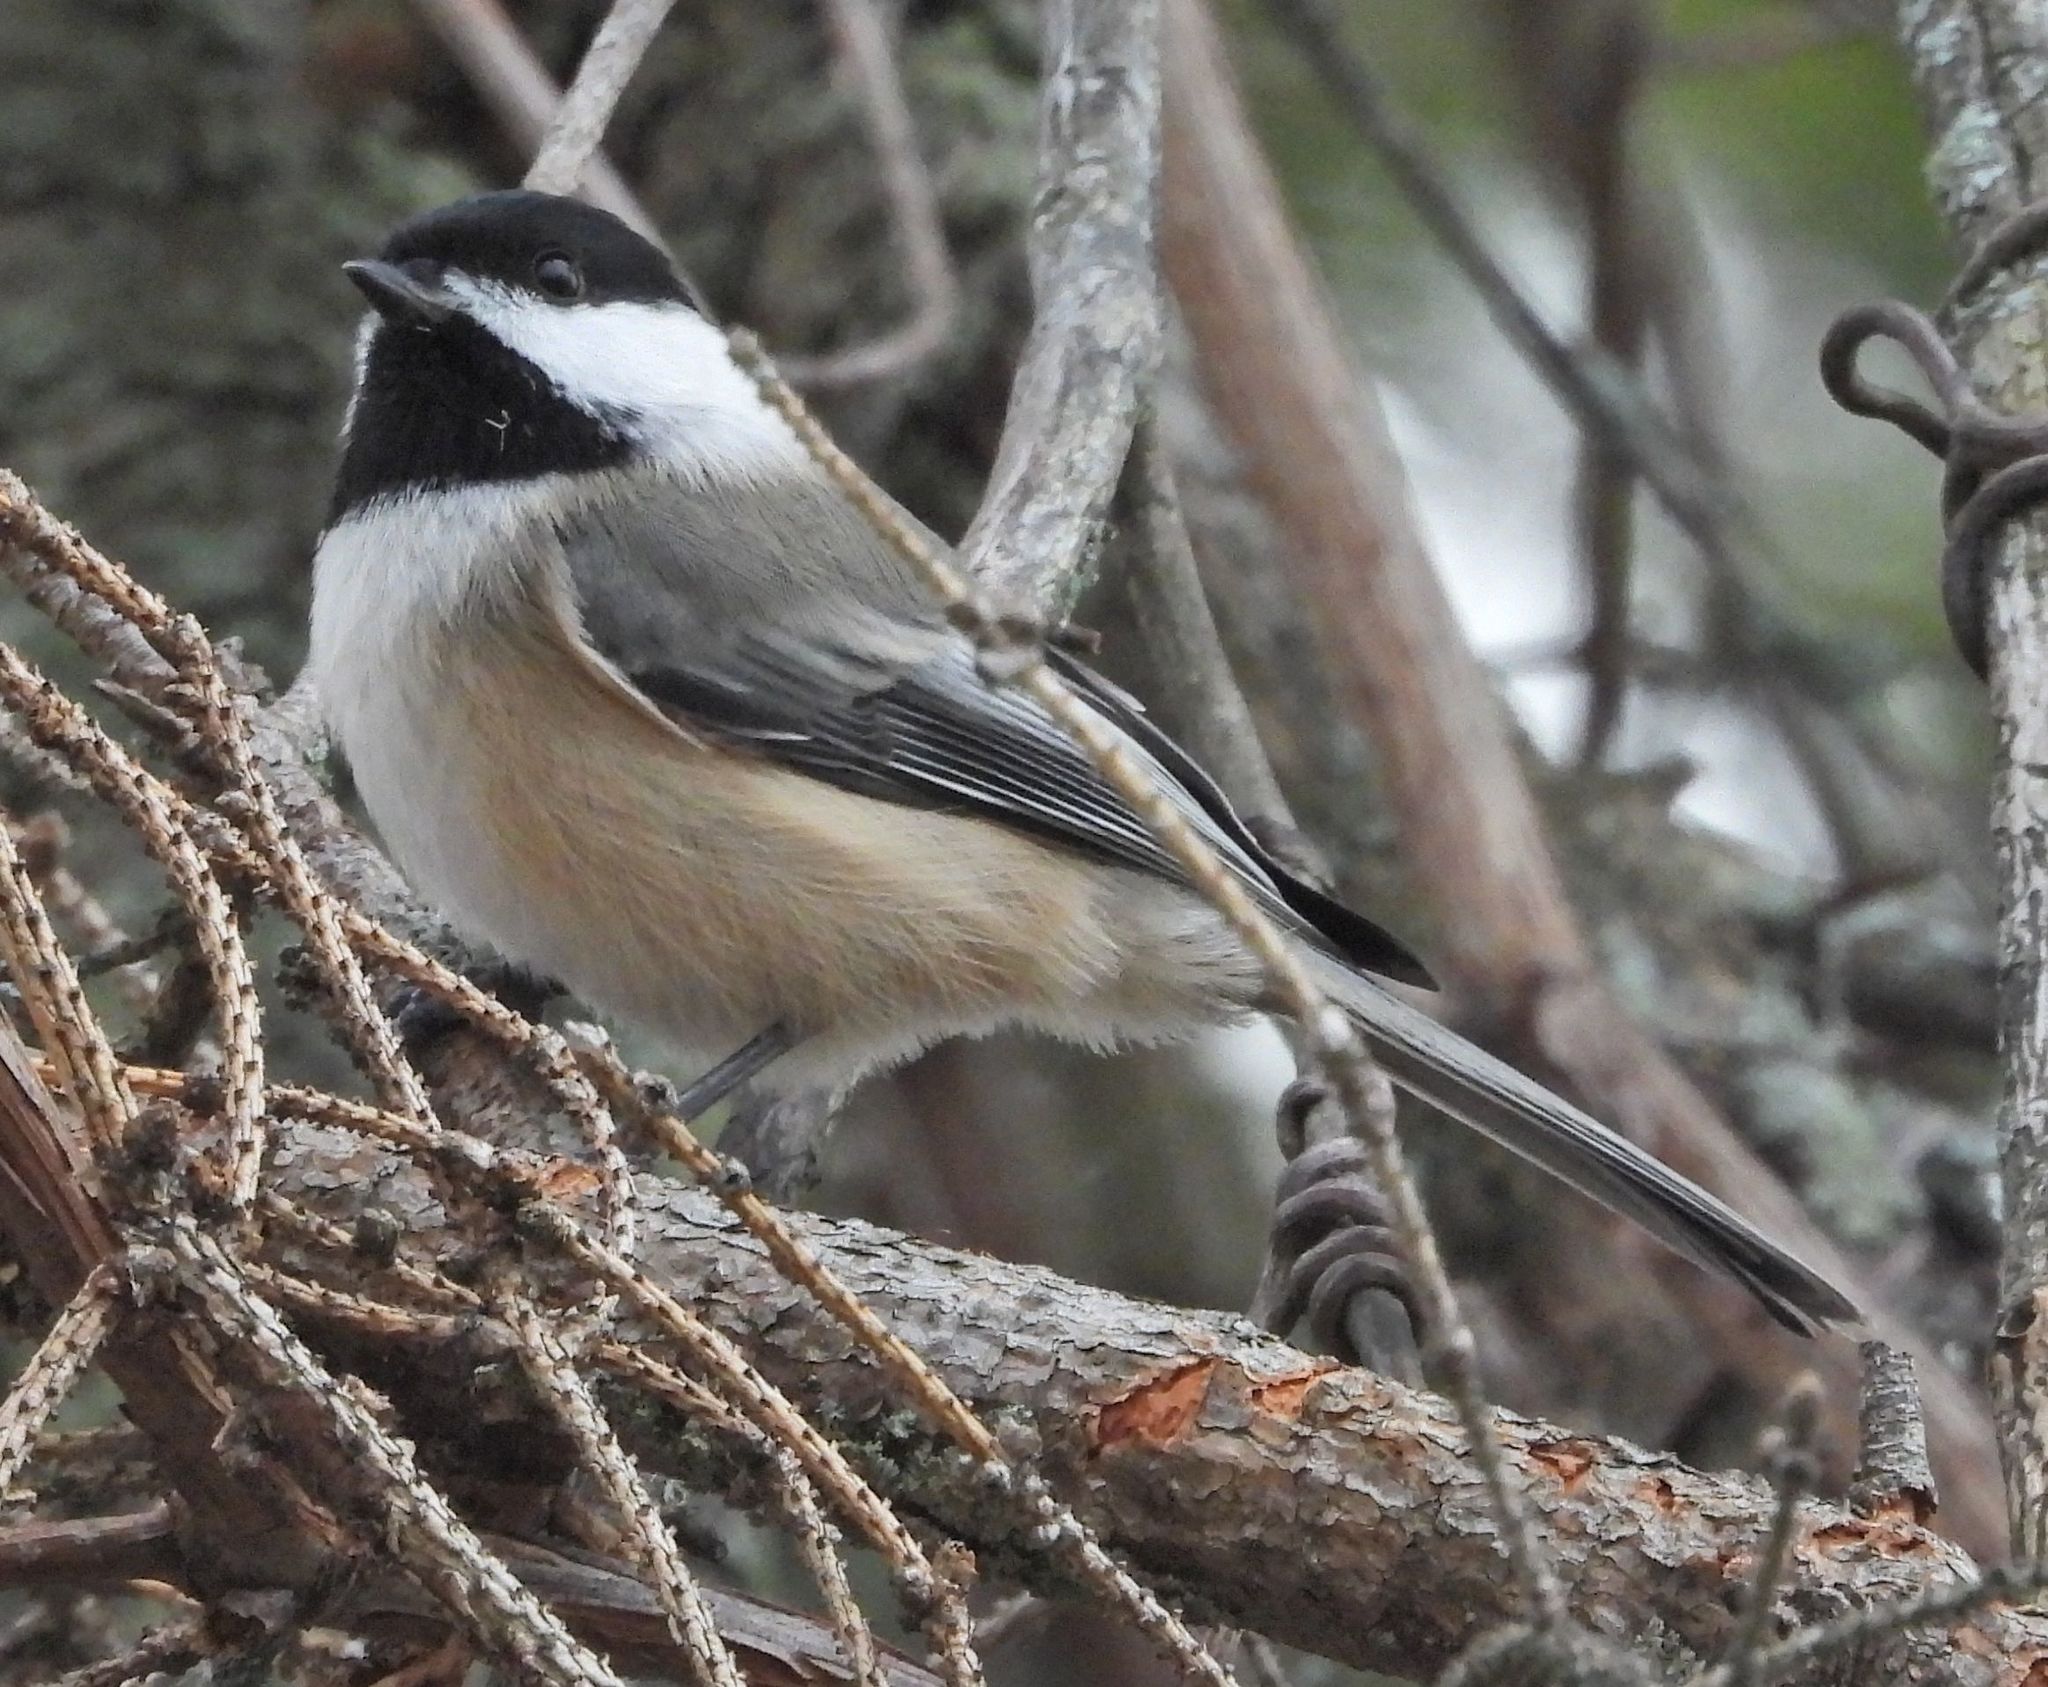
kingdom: Animalia
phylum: Chordata
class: Aves
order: Passeriformes
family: Paridae
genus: Poecile
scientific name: Poecile atricapillus
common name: Black-capped chickadee
